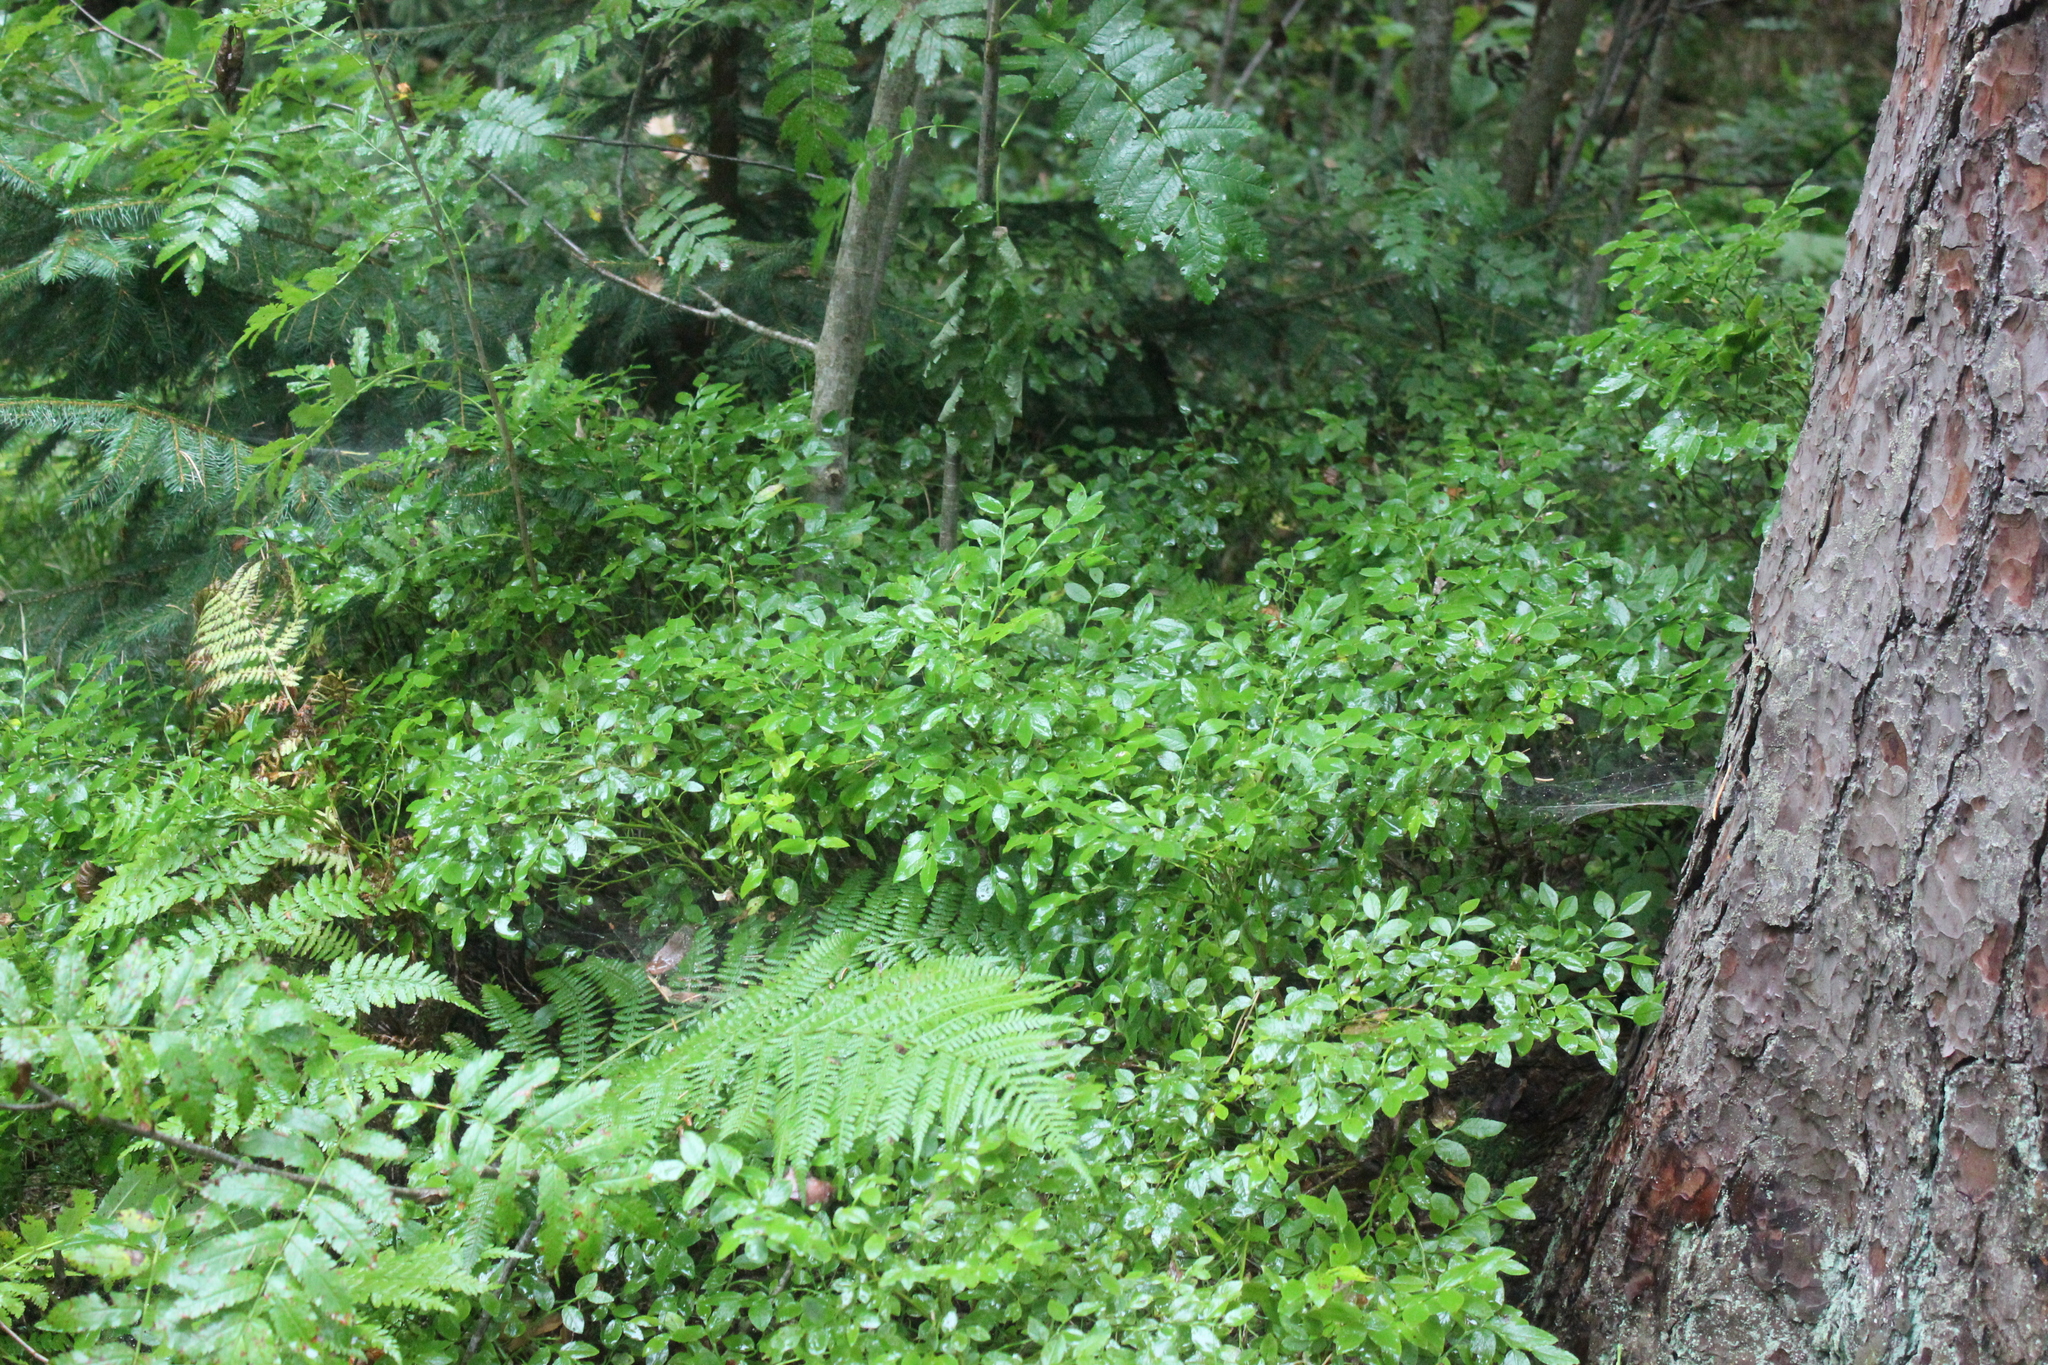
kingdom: Plantae
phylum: Tracheophyta
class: Magnoliopsida
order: Ericales
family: Ericaceae
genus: Vaccinium
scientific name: Vaccinium myrtillus
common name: Bilberry
